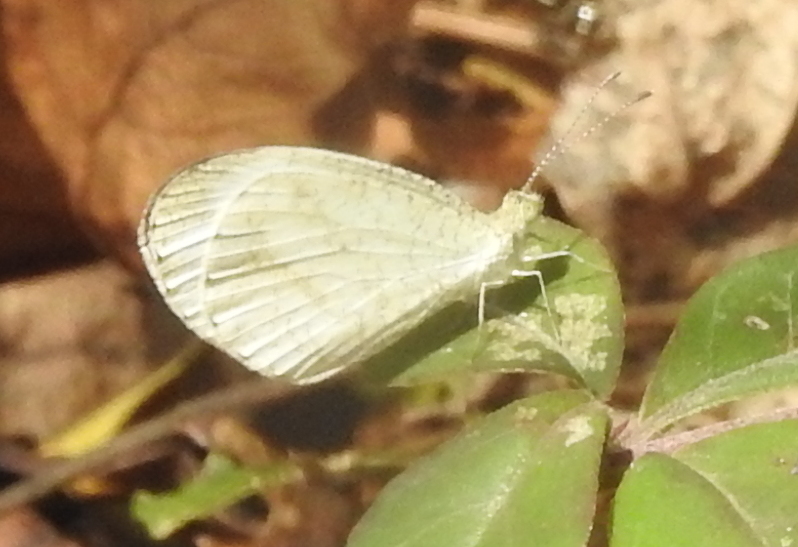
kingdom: Animalia
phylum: Arthropoda
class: Insecta
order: Lepidoptera
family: Pieridae
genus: Leptosia
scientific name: Leptosia nina
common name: Psyche
